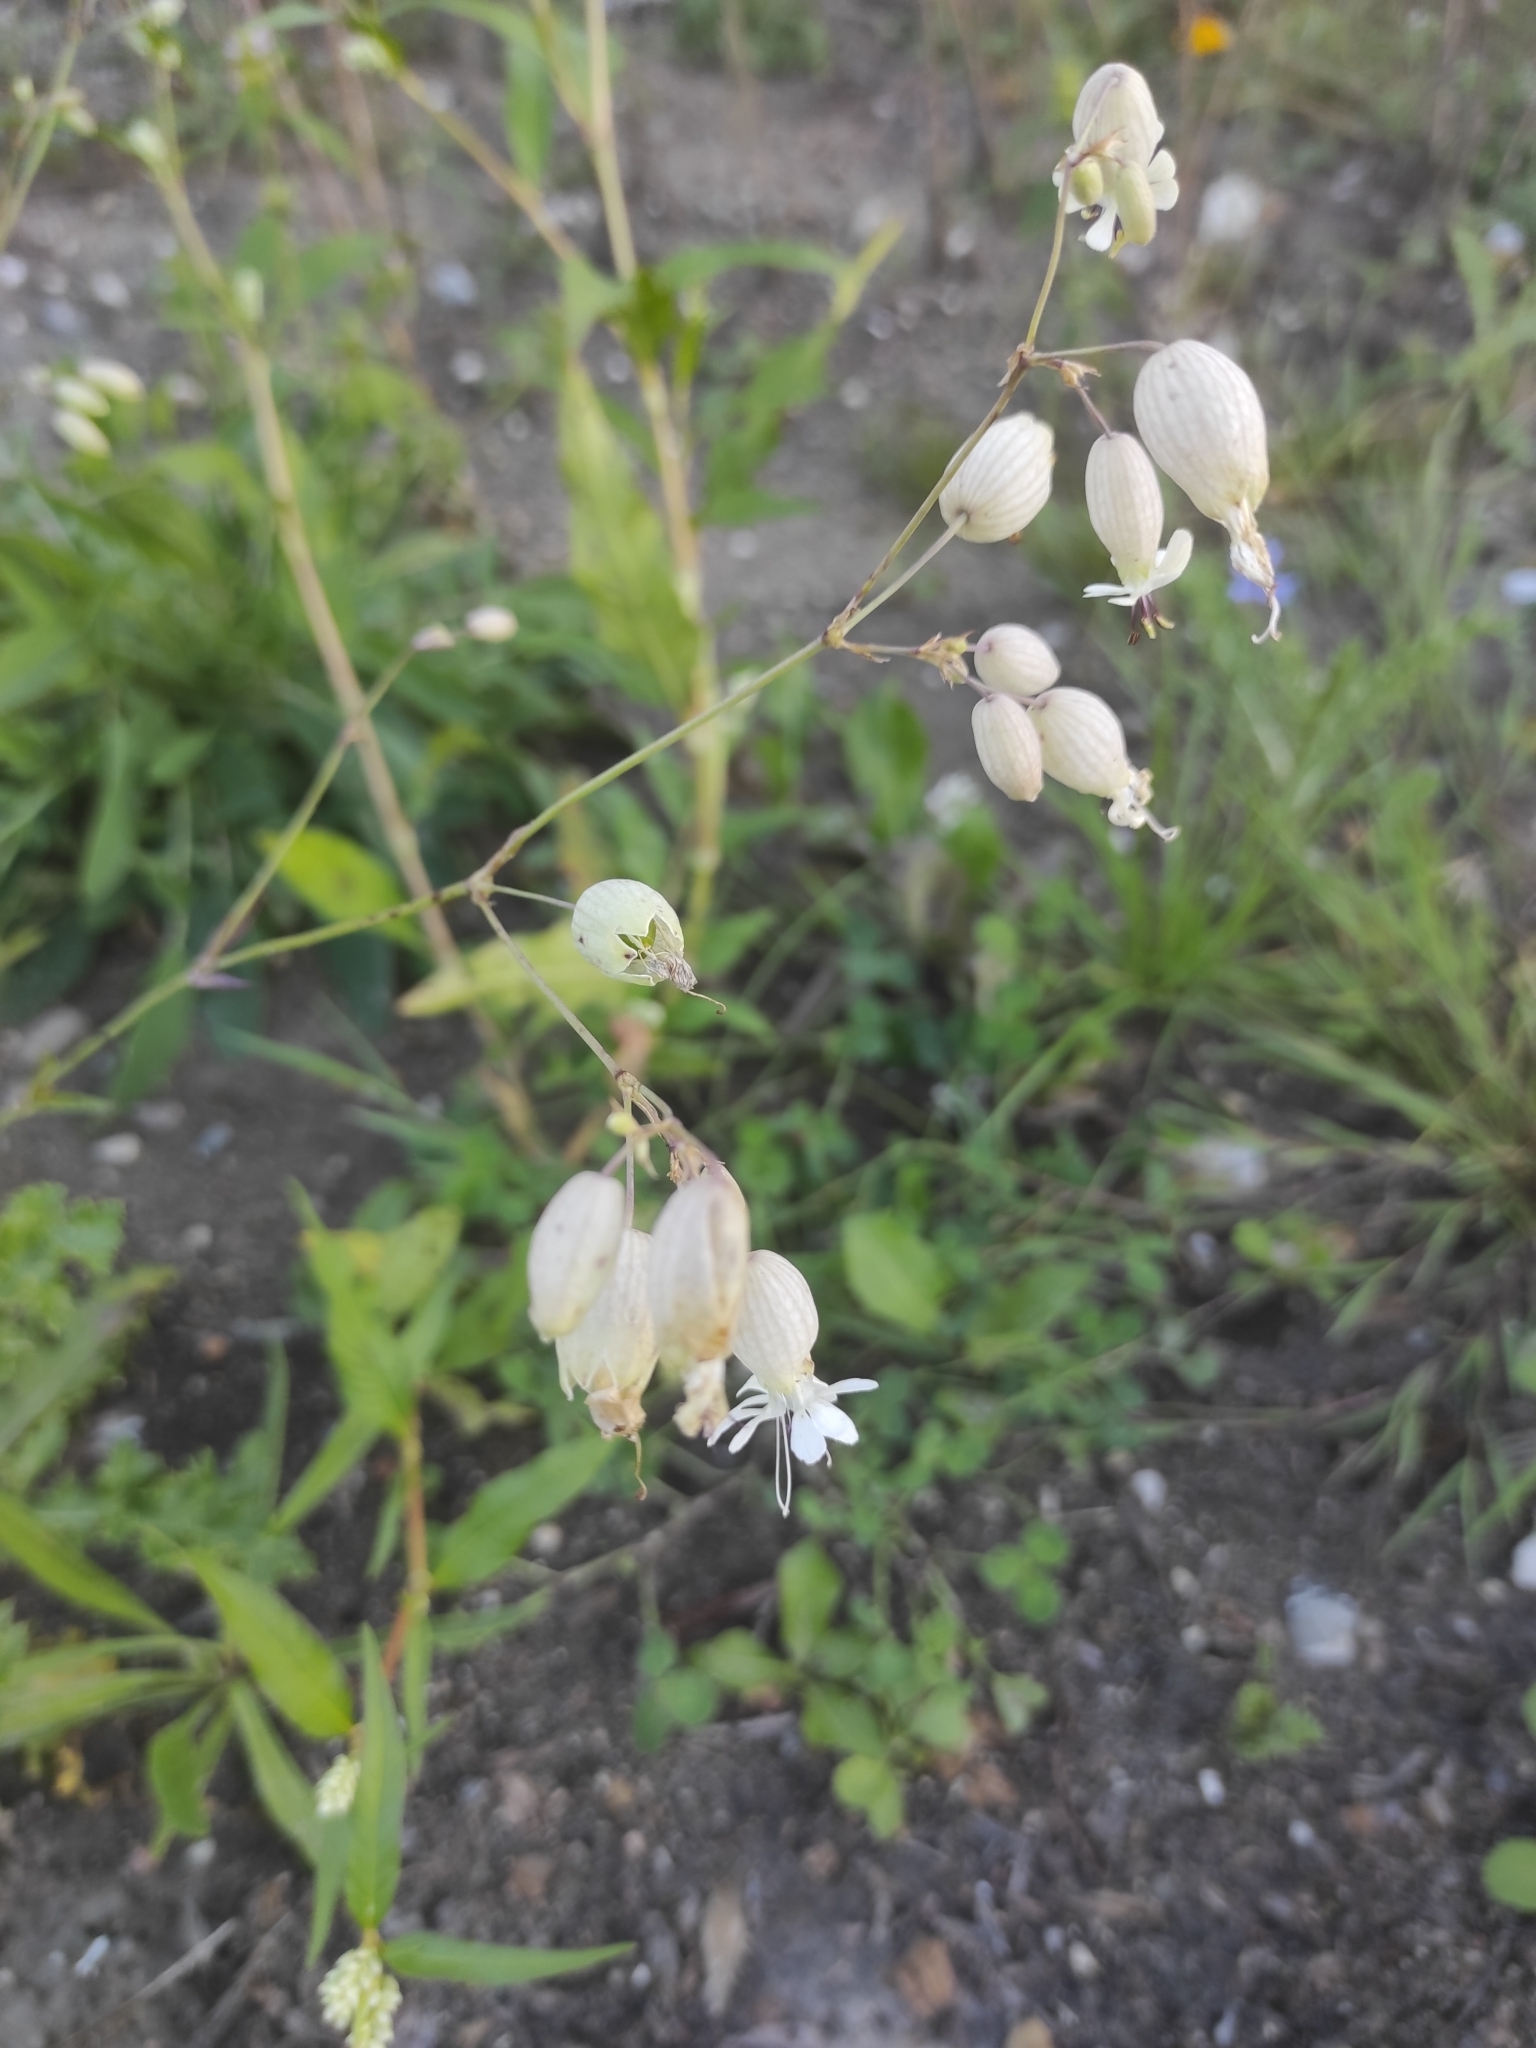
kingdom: Plantae
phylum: Tracheophyta
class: Magnoliopsida
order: Caryophyllales
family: Caryophyllaceae
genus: Silene
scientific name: Silene vulgaris
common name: Bladder campion
